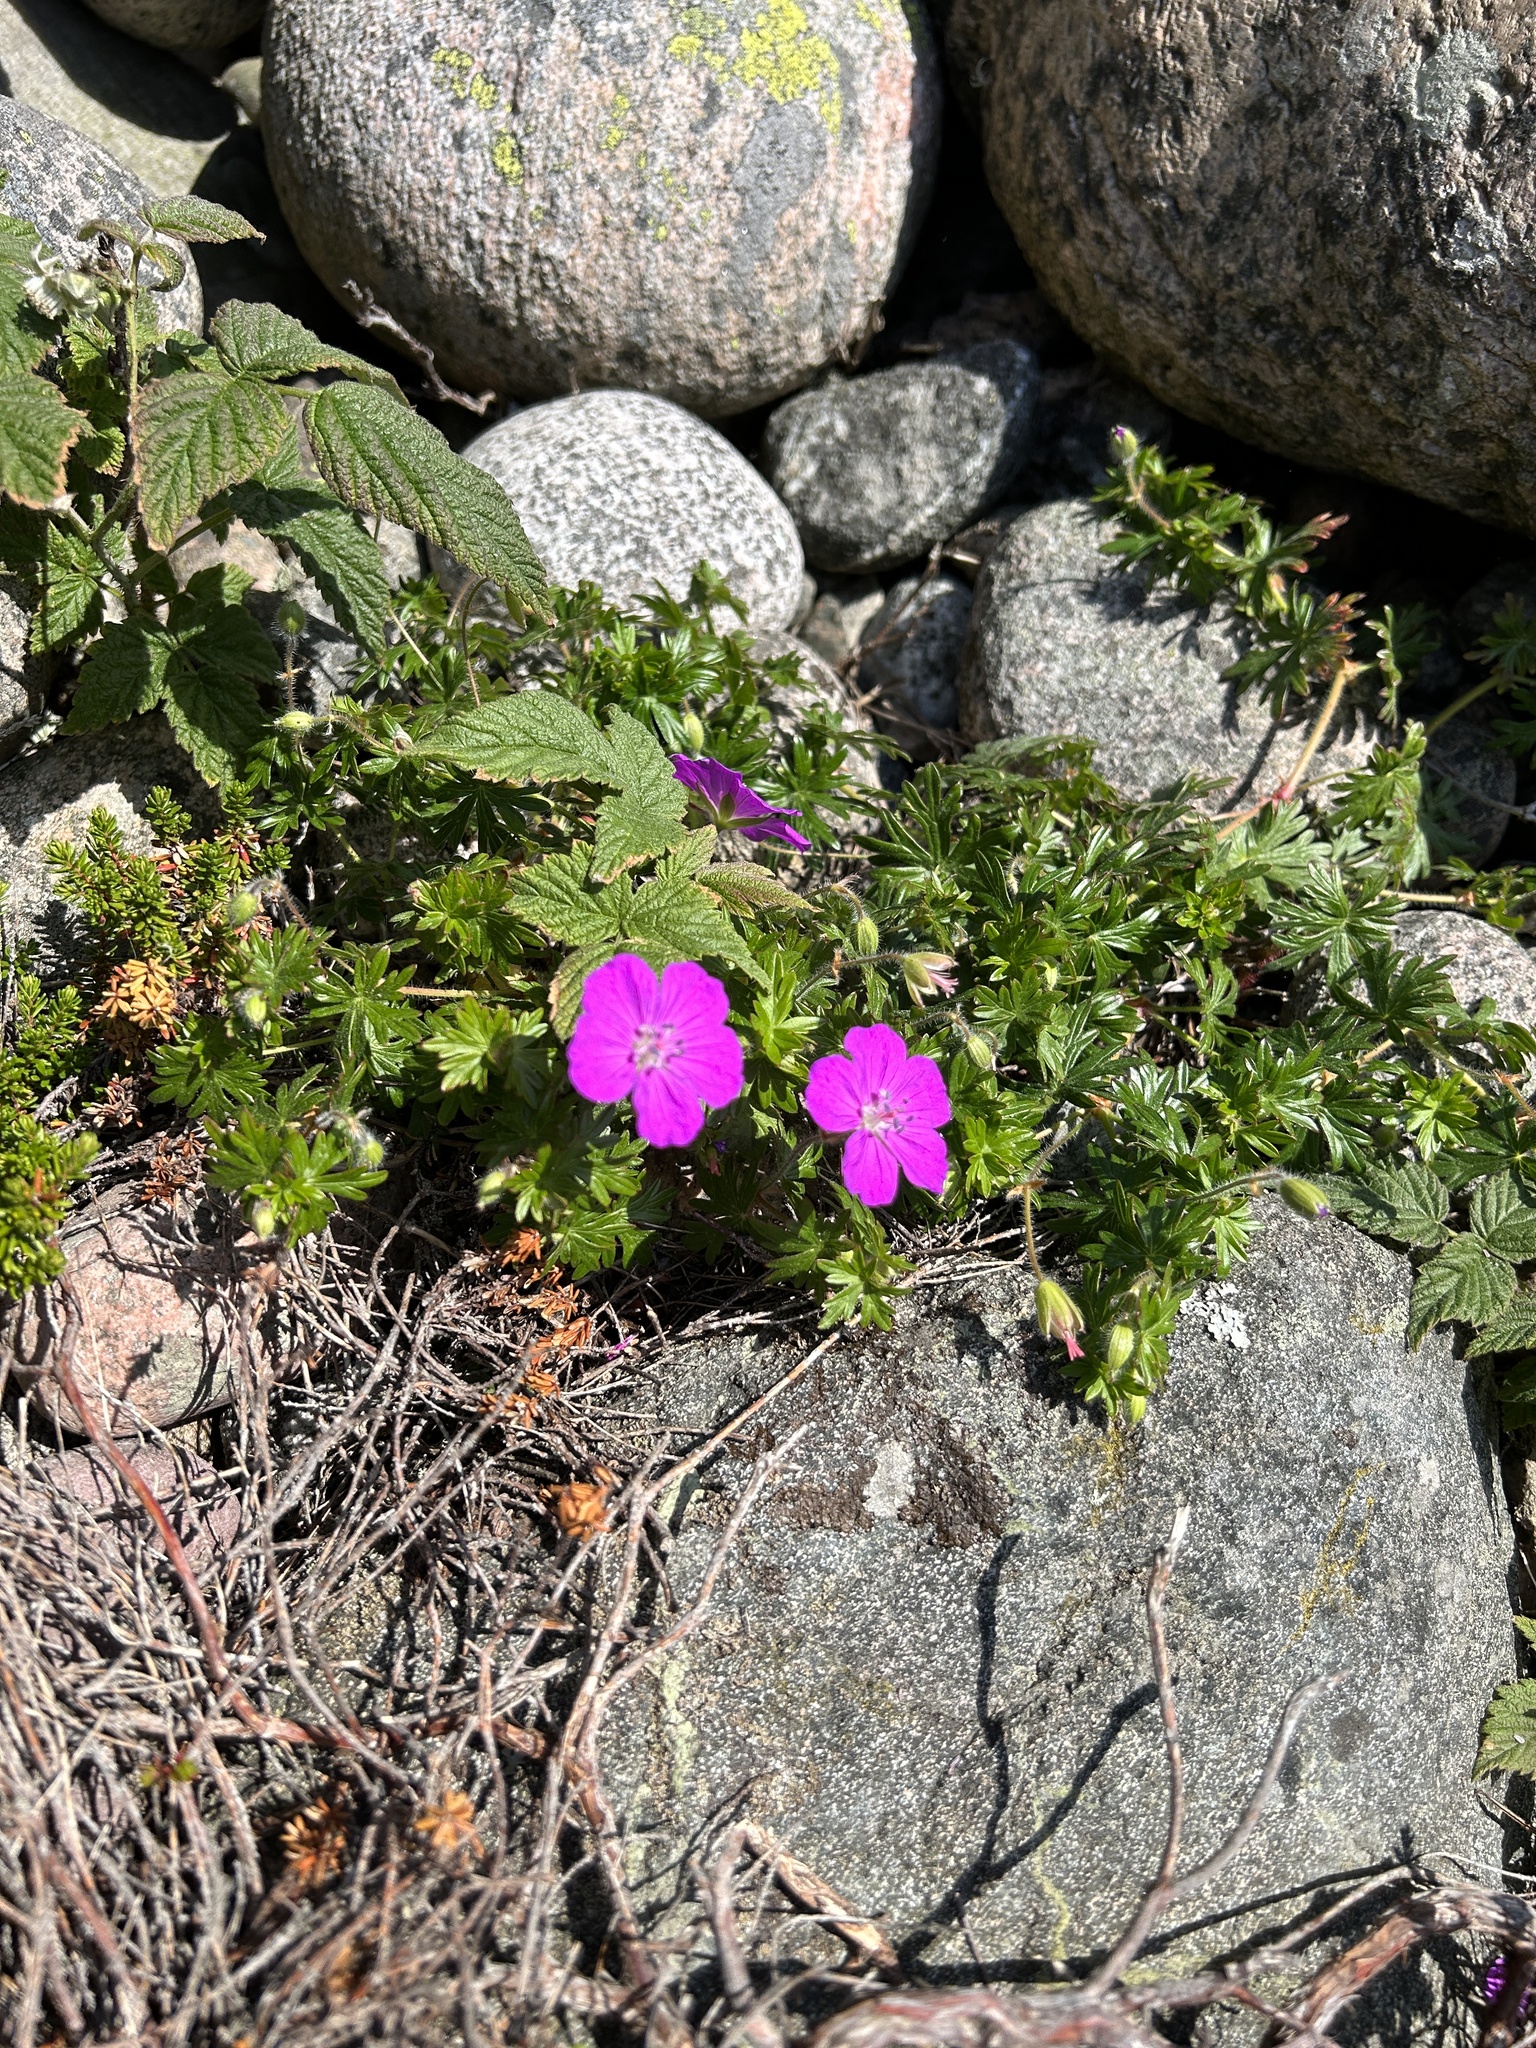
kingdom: Plantae
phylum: Tracheophyta
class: Magnoliopsida
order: Geraniales
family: Geraniaceae
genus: Geranium
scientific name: Geranium sanguineum
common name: Bloody crane's-bill
